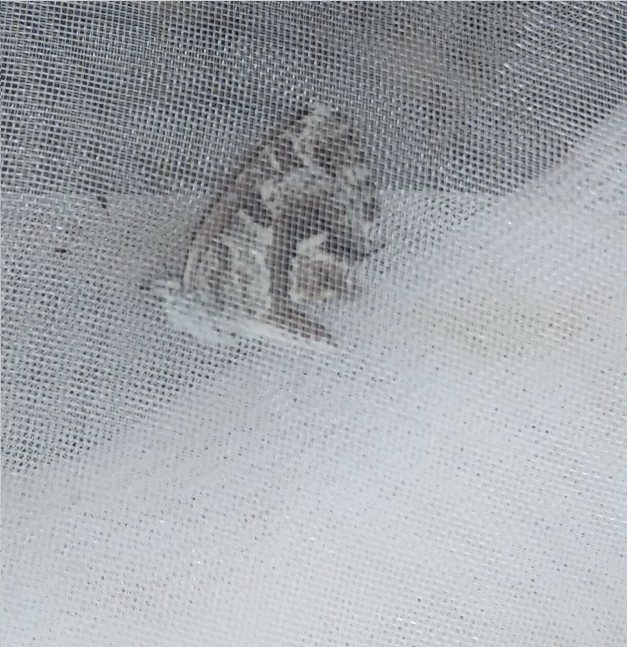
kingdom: Animalia
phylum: Arthropoda
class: Insecta
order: Lepidoptera
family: Lycaenidae
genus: Cacyreus
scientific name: Cacyreus marshalli
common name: Geranium bronze
